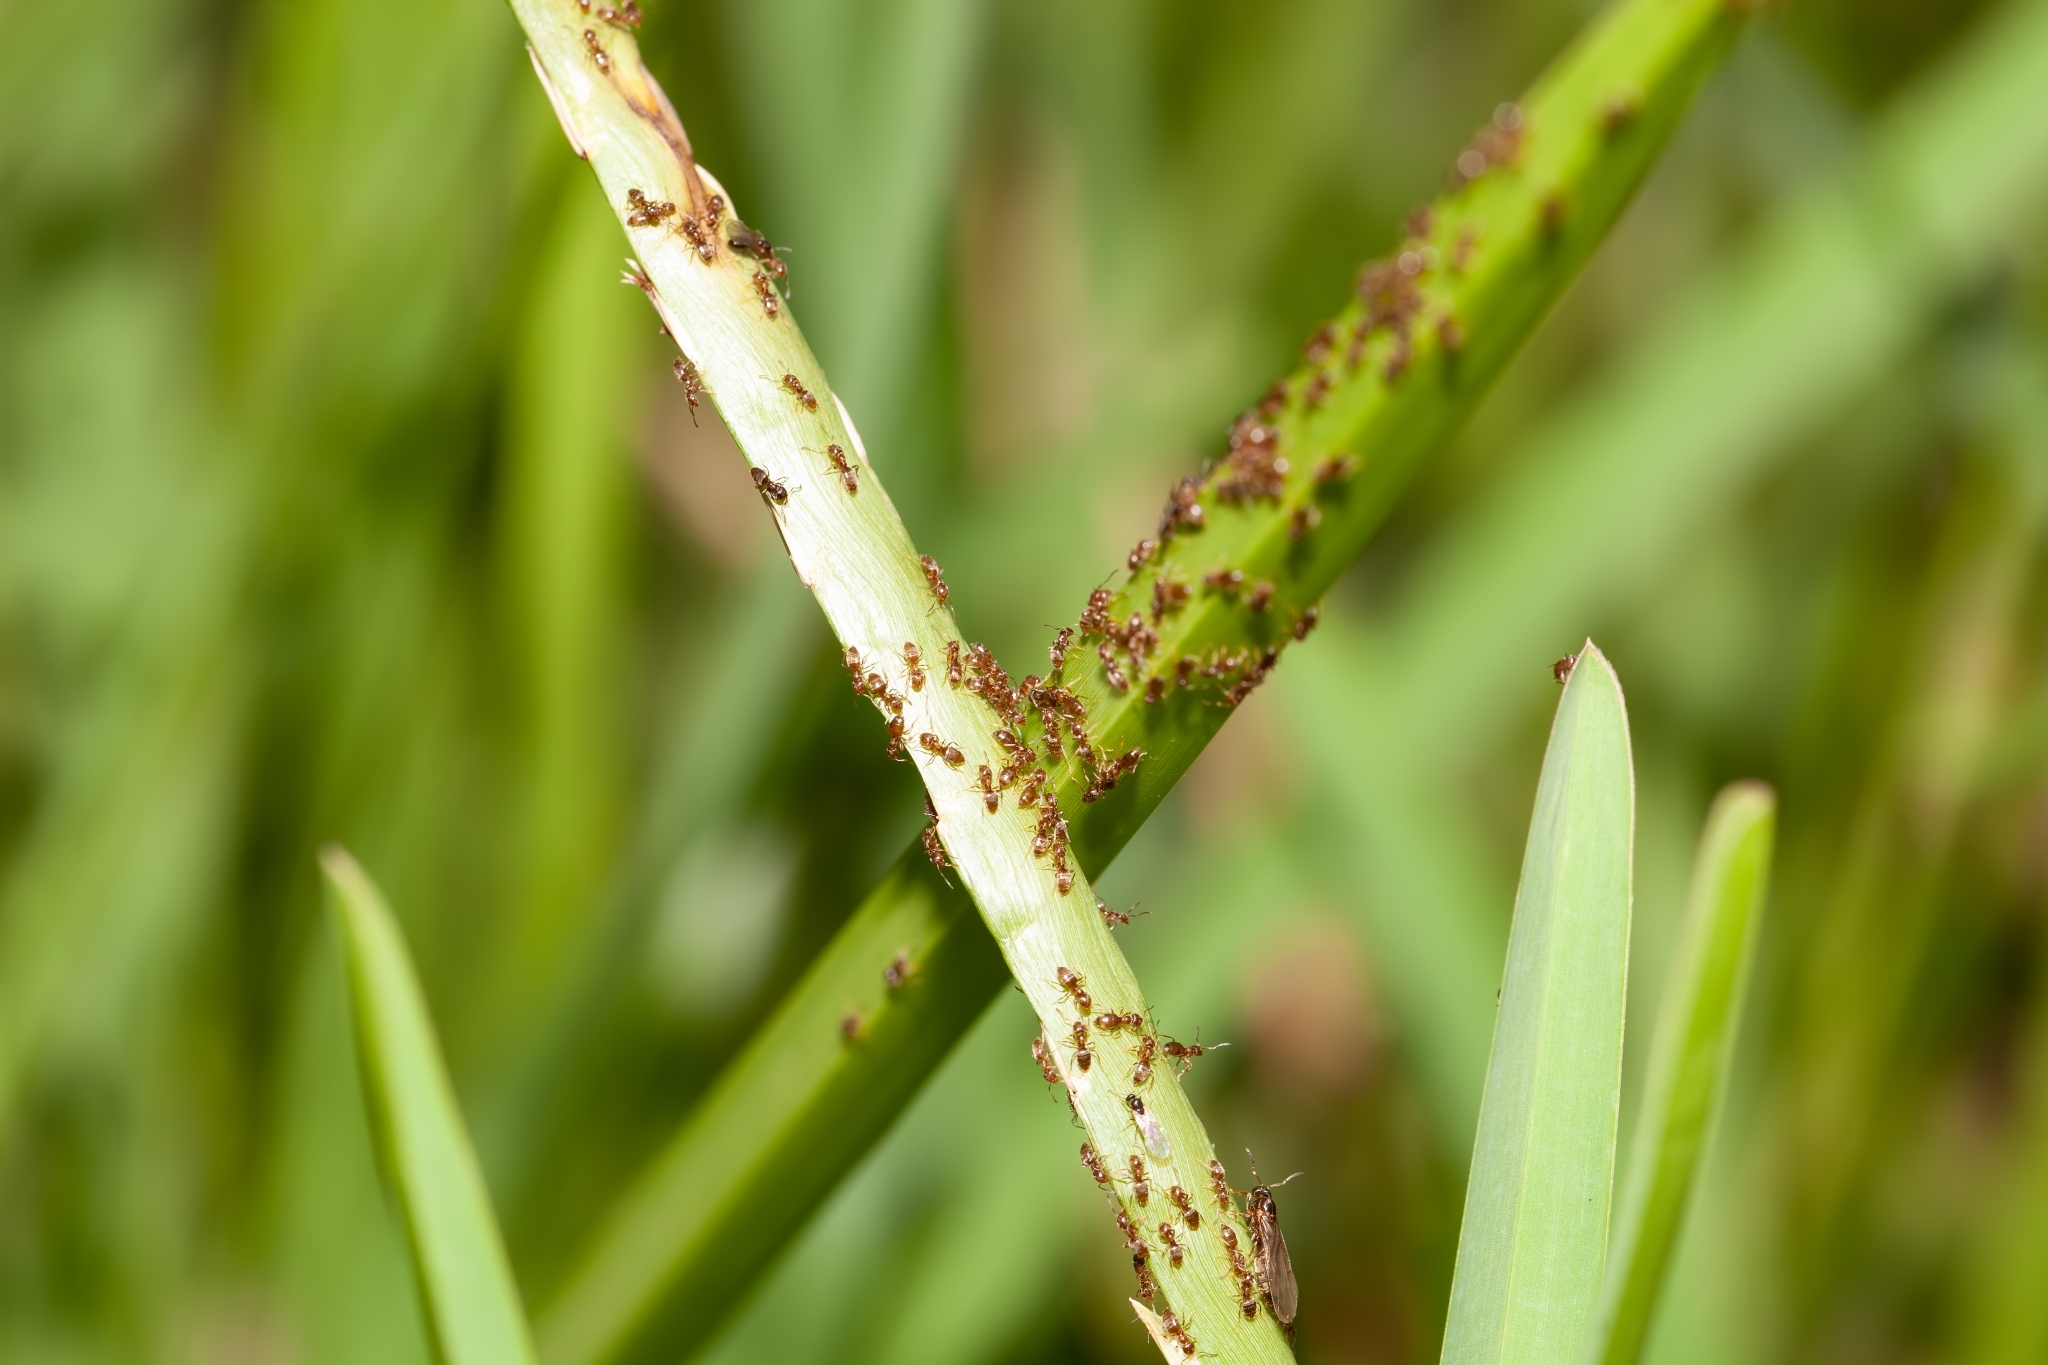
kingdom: Animalia
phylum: Arthropoda
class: Insecta
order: Hymenoptera
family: Formicidae
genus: Brachymyrmex
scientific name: Brachymyrmex obscurior
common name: Obscure rover ant
